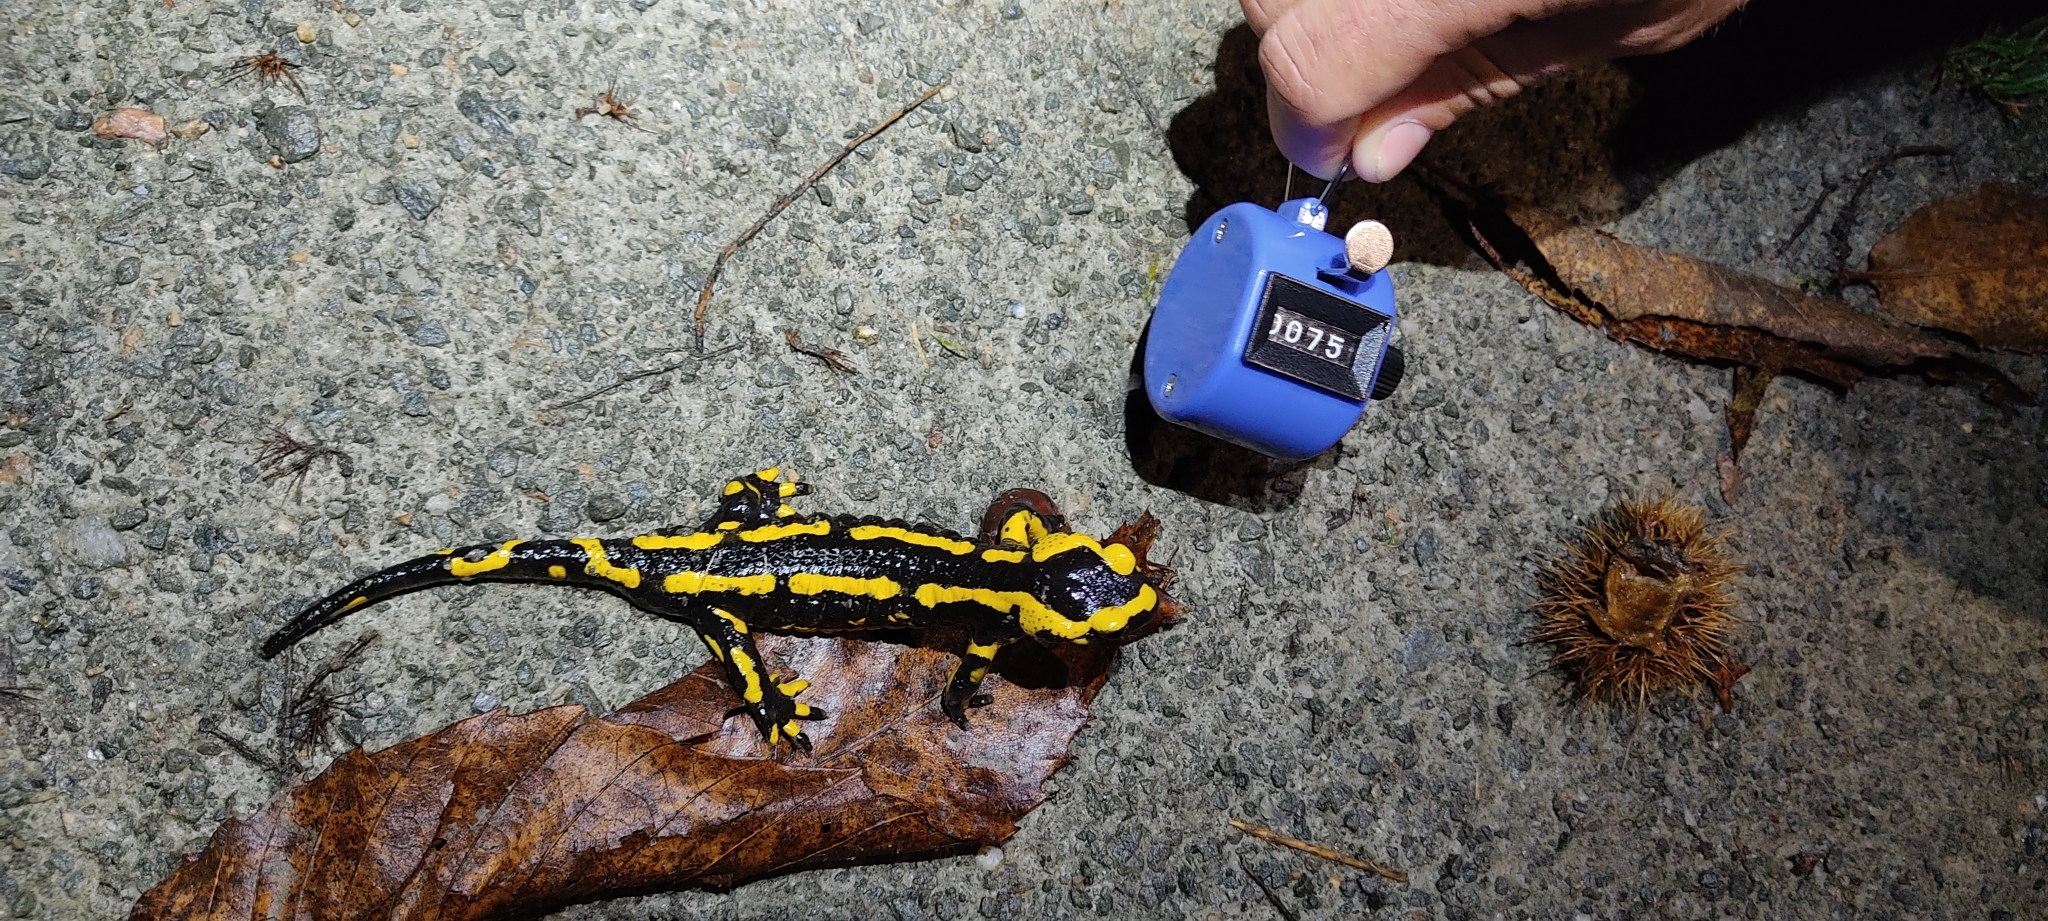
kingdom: Animalia
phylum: Chordata
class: Amphibia
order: Caudata
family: Salamandridae
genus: Salamandra
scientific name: Salamandra salamandra
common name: Fire salamander
